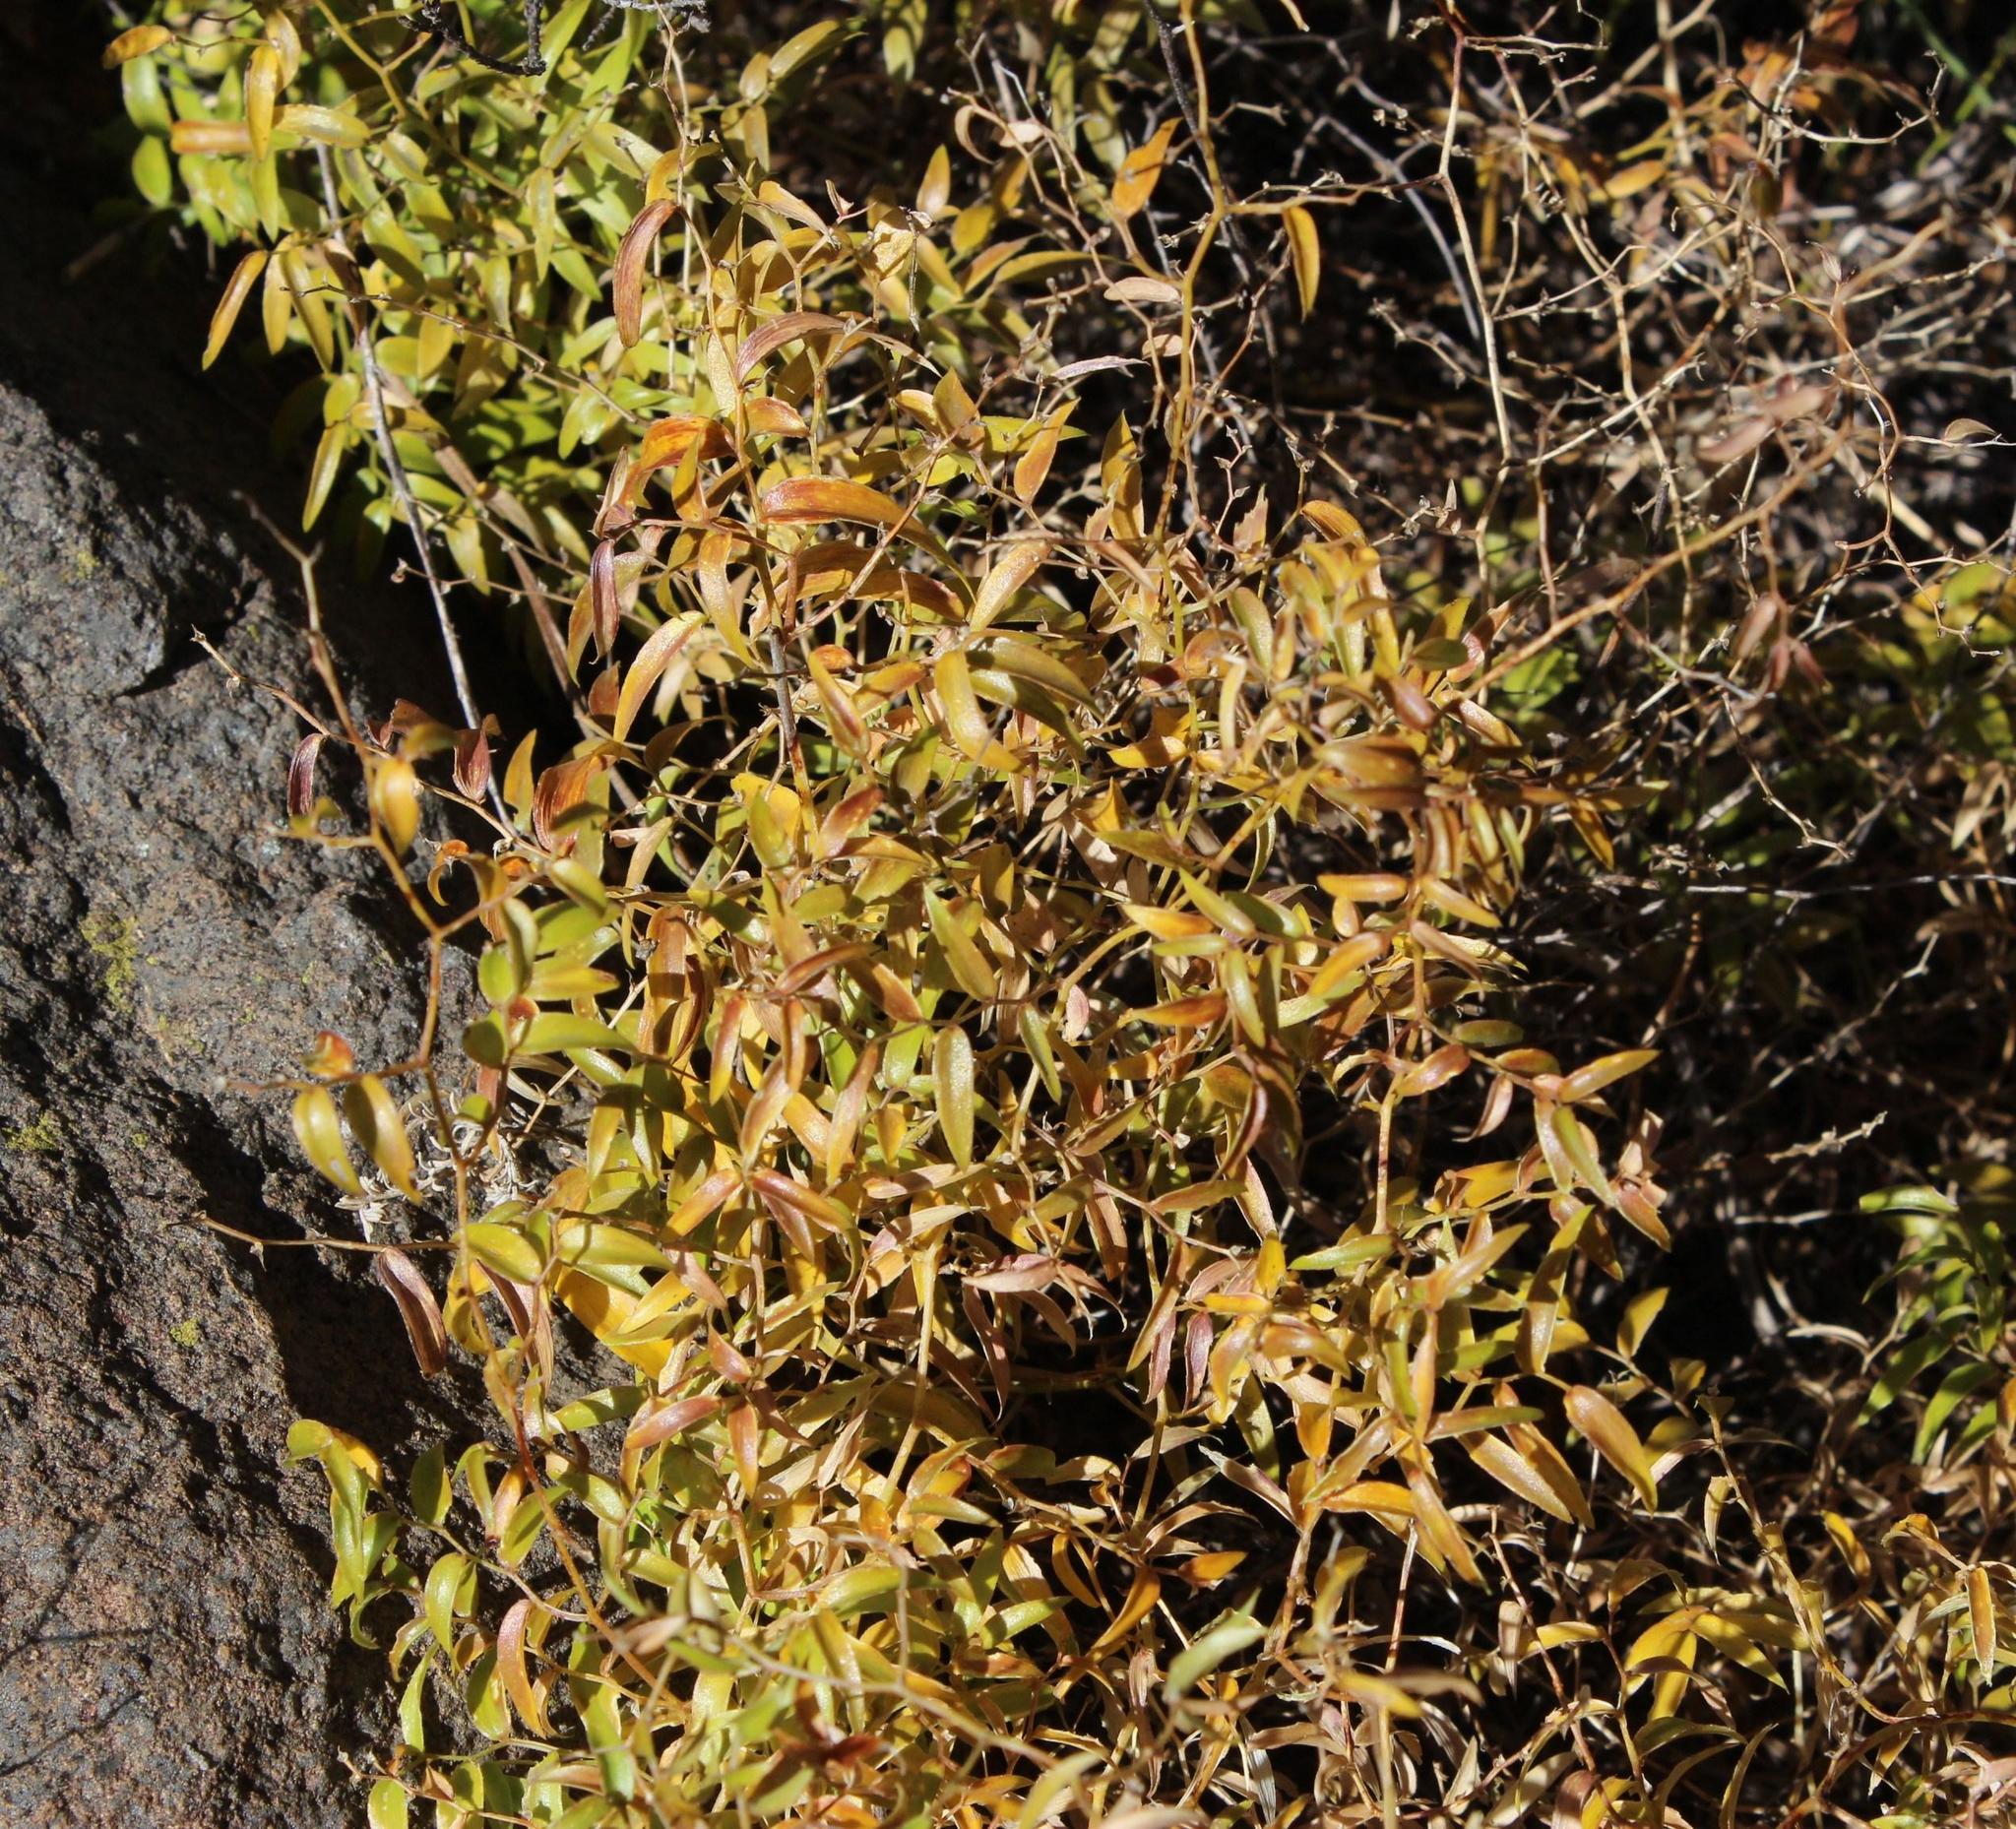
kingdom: Plantae
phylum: Tracheophyta
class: Liliopsida
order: Asparagales
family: Asparagaceae
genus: Asparagus
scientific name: Asparagus asparagoides
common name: African asparagus fern
